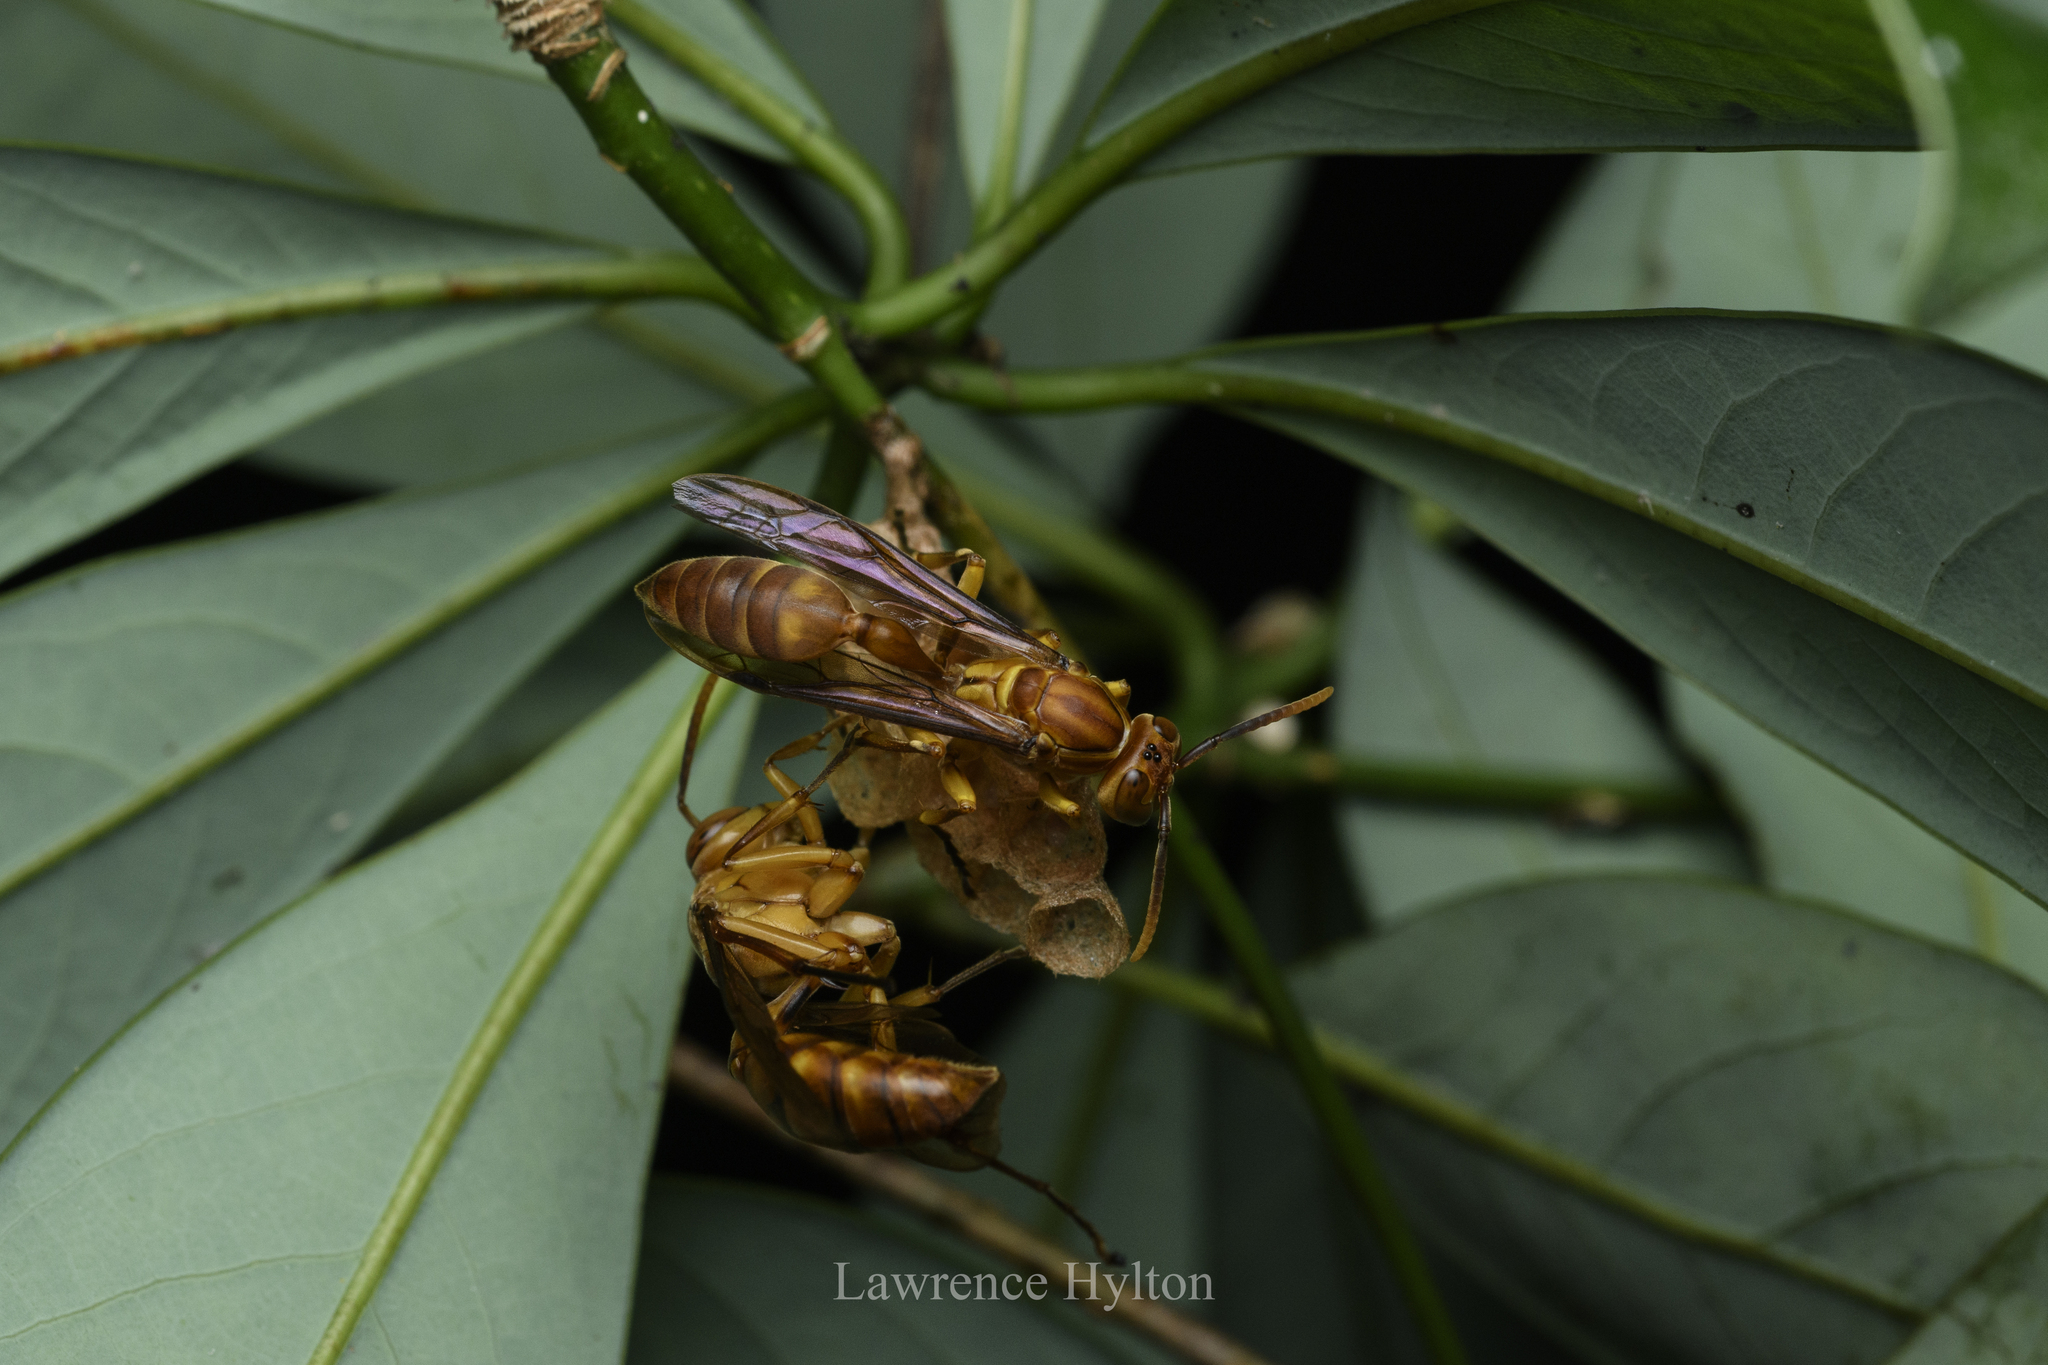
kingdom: Animalia
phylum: Arthropoda
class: Insecta
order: Hymenoptera
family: Vespidae
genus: Parapolybia
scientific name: Parapolybia indica
